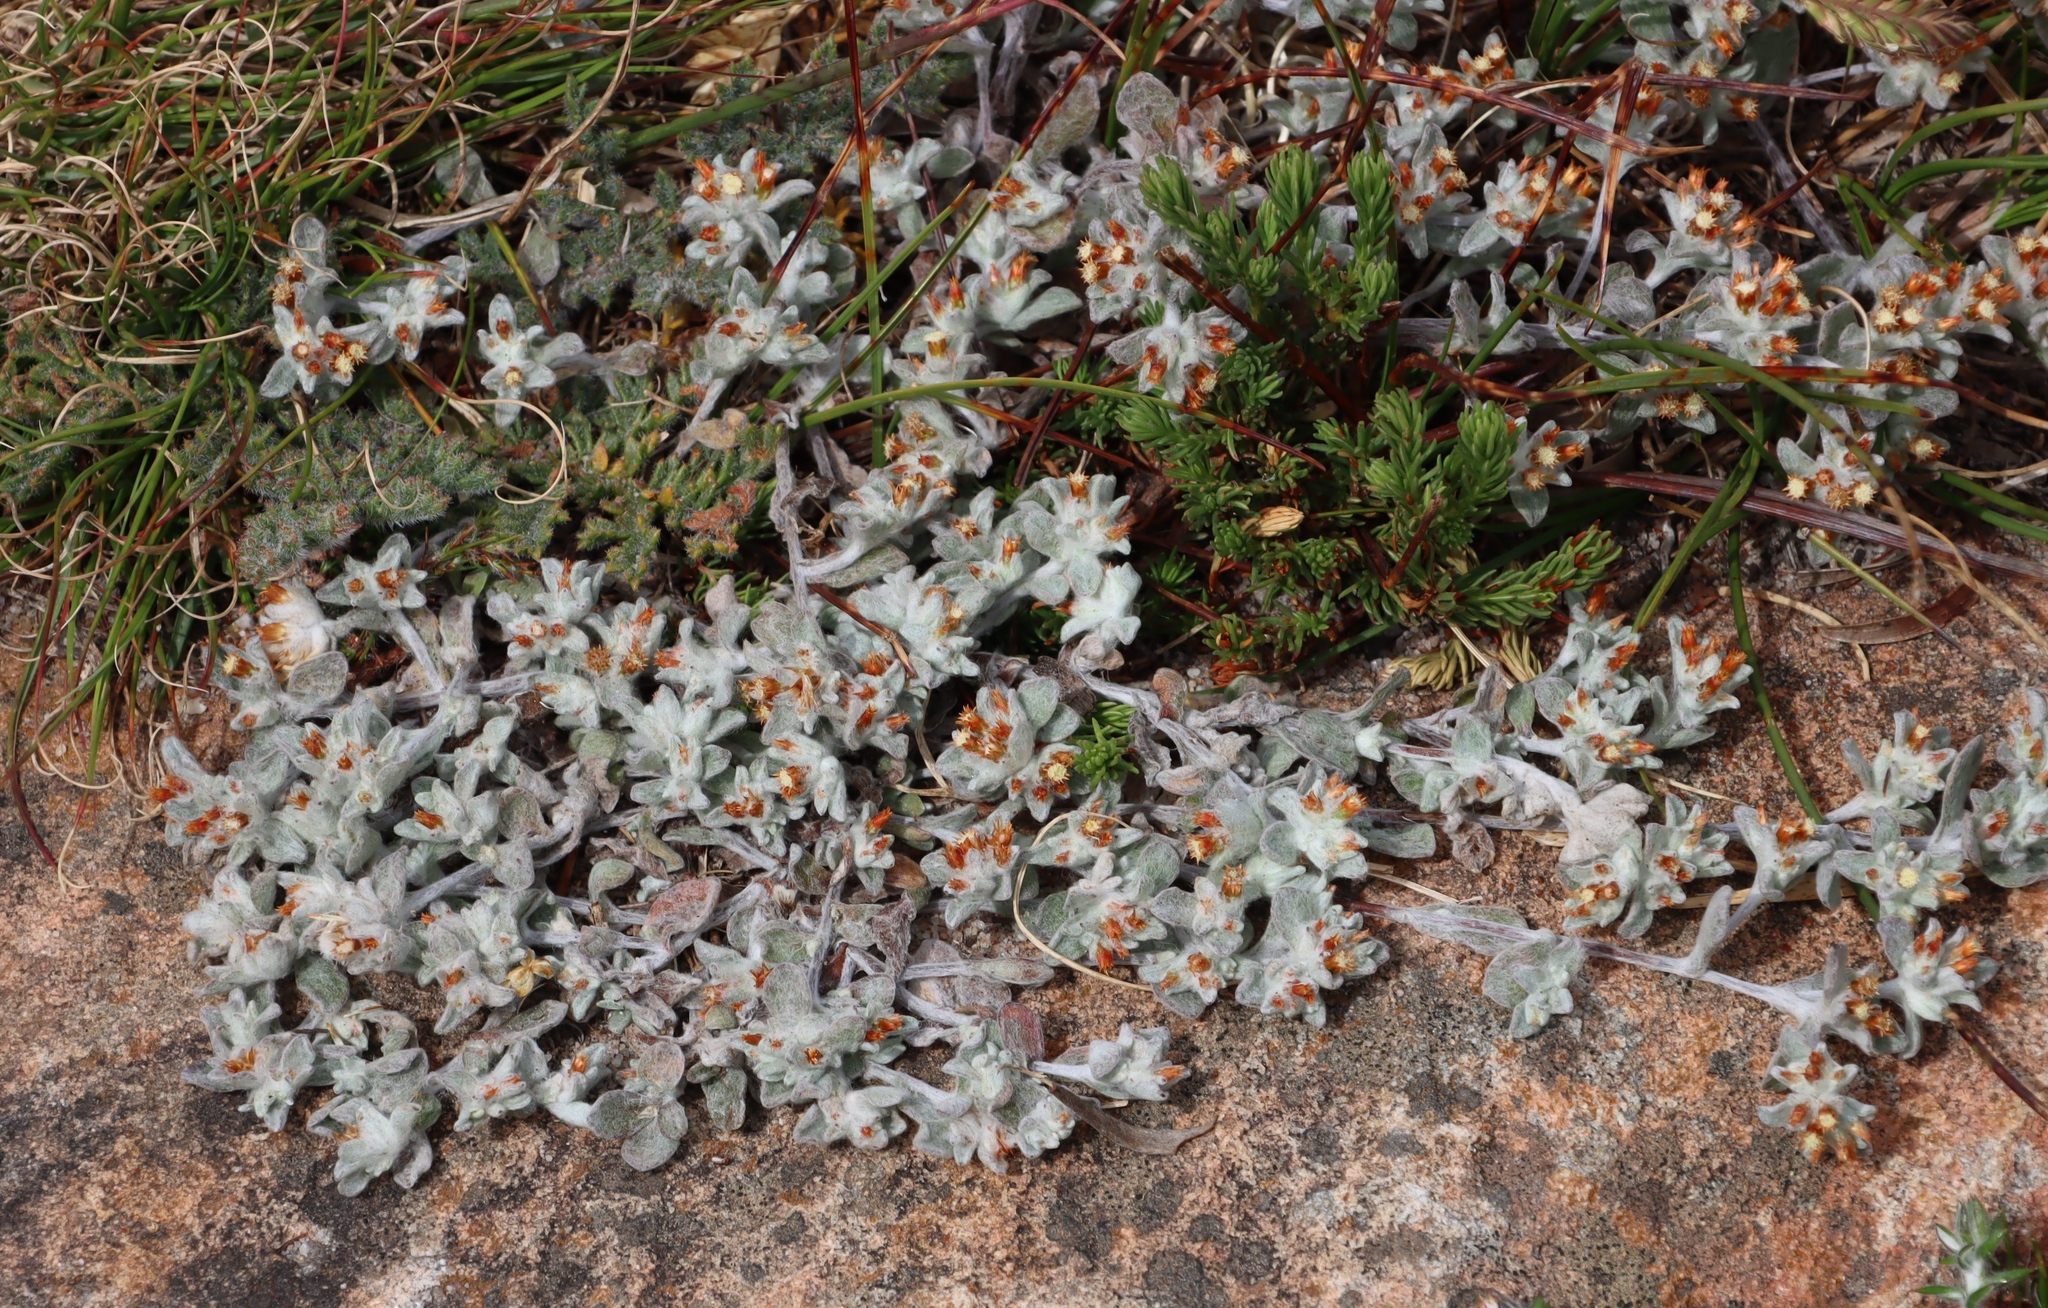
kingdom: Plantae
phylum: Tracheophyta
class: Magnoliopsida
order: Asterales
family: Asteraceae
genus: Helichrysum
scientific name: Helichrysum tinctum
